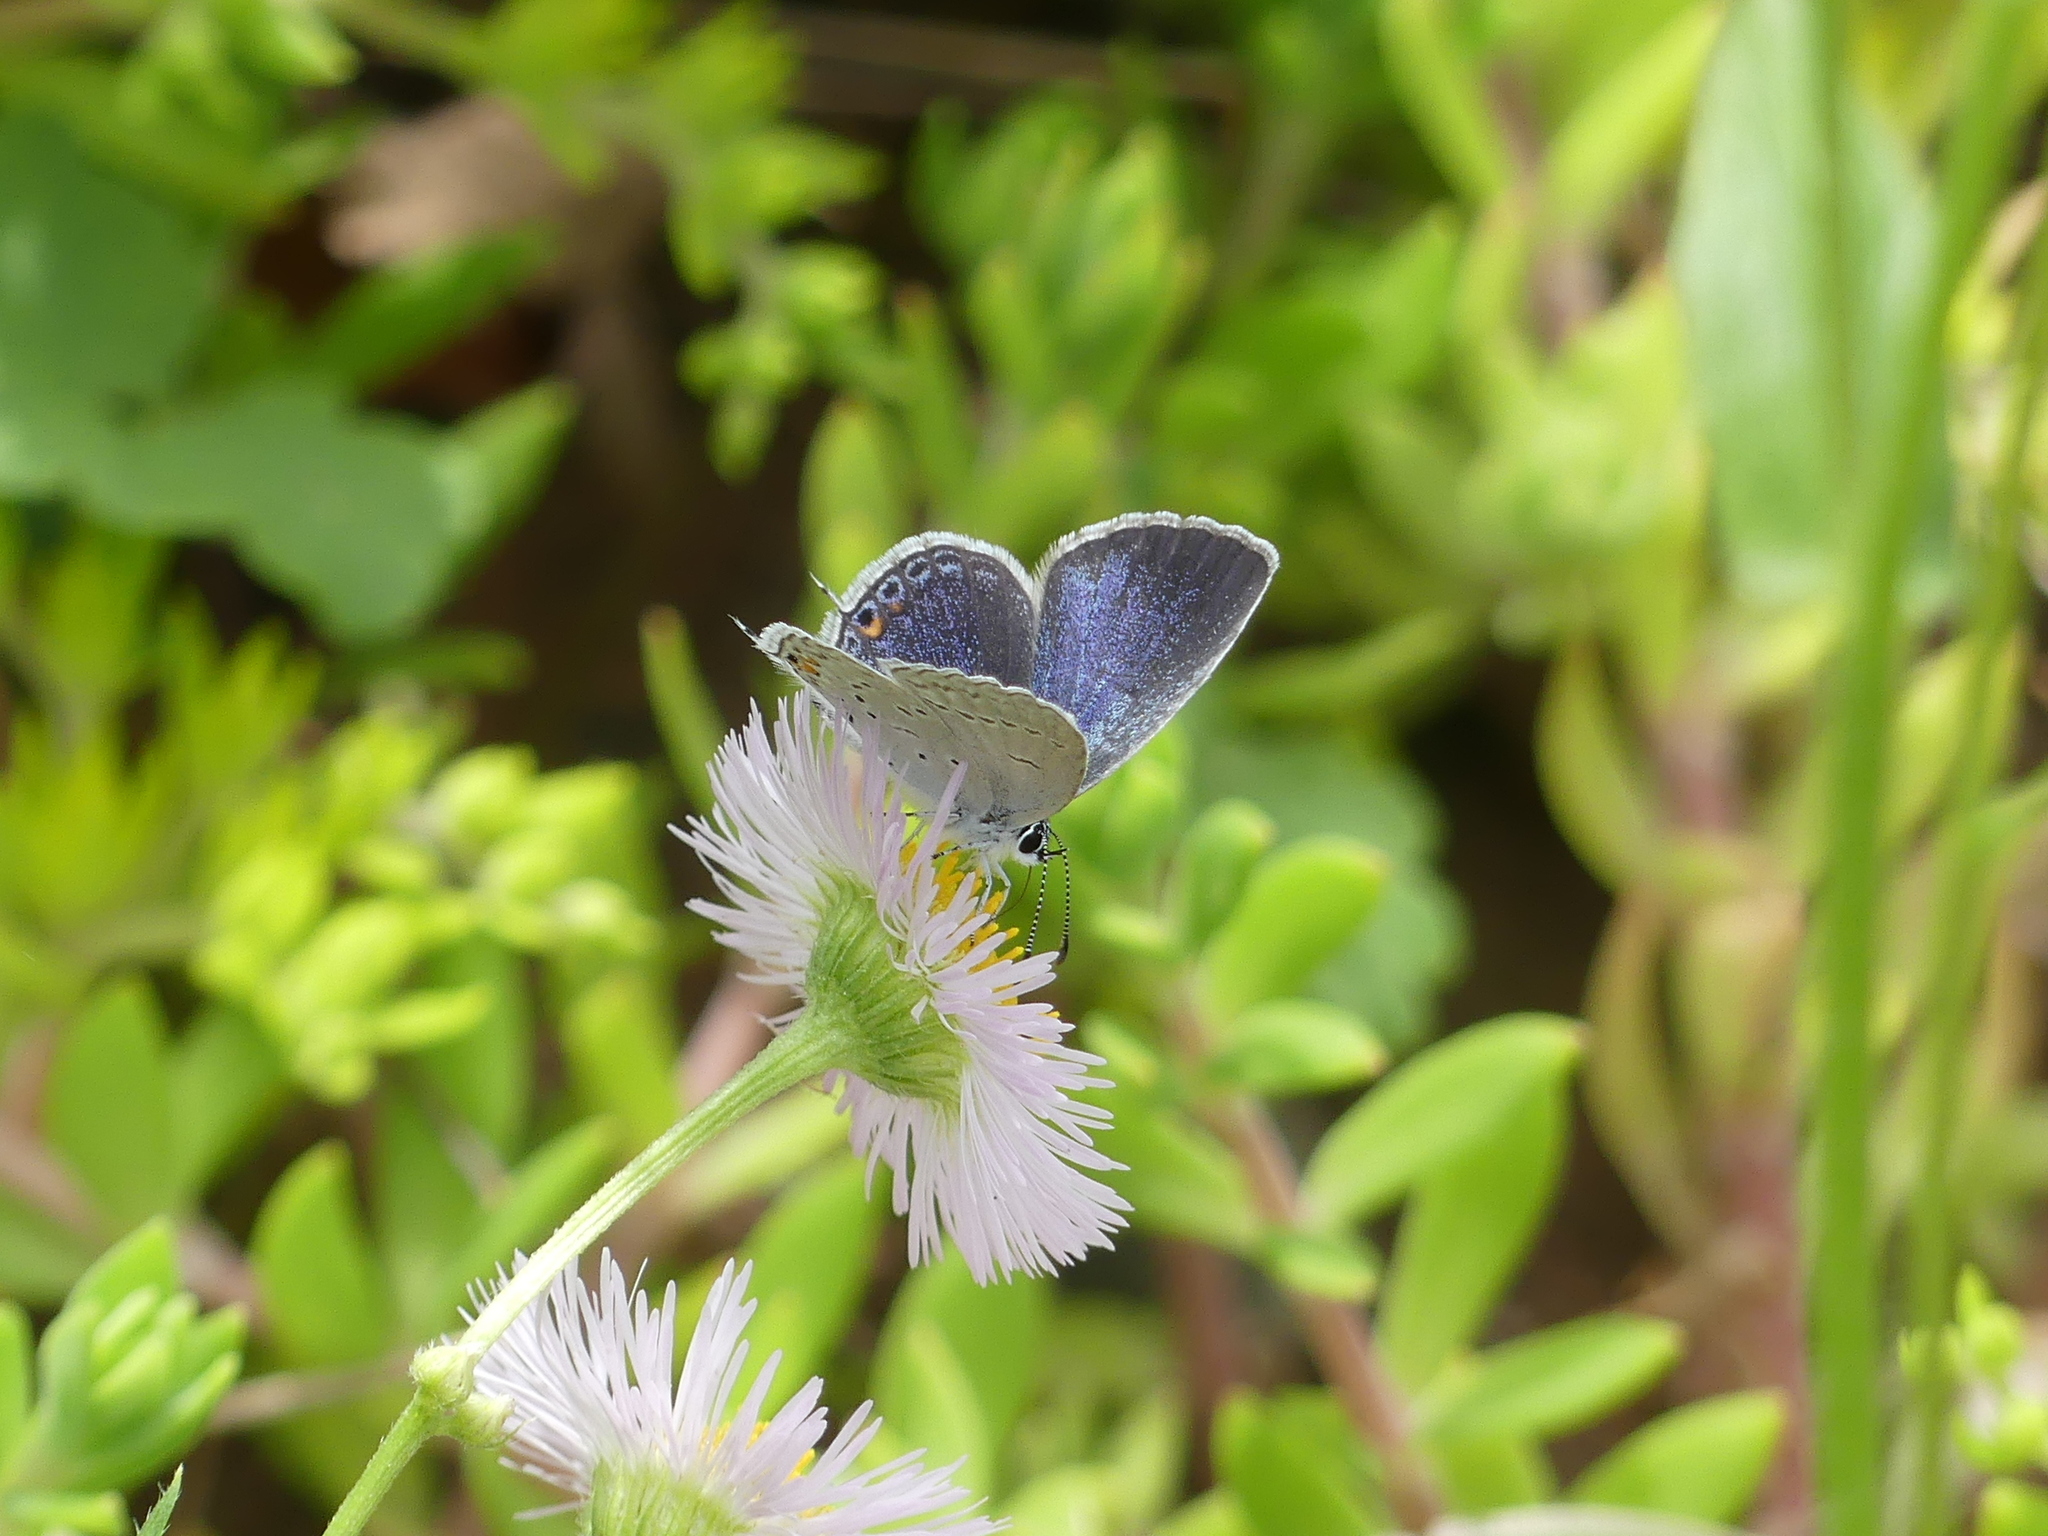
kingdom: Animalia
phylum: Arthropoda
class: Insecta
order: Lepidoptera
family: Lycaenidae
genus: Elkalyce
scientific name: Elkalyce comyntas
